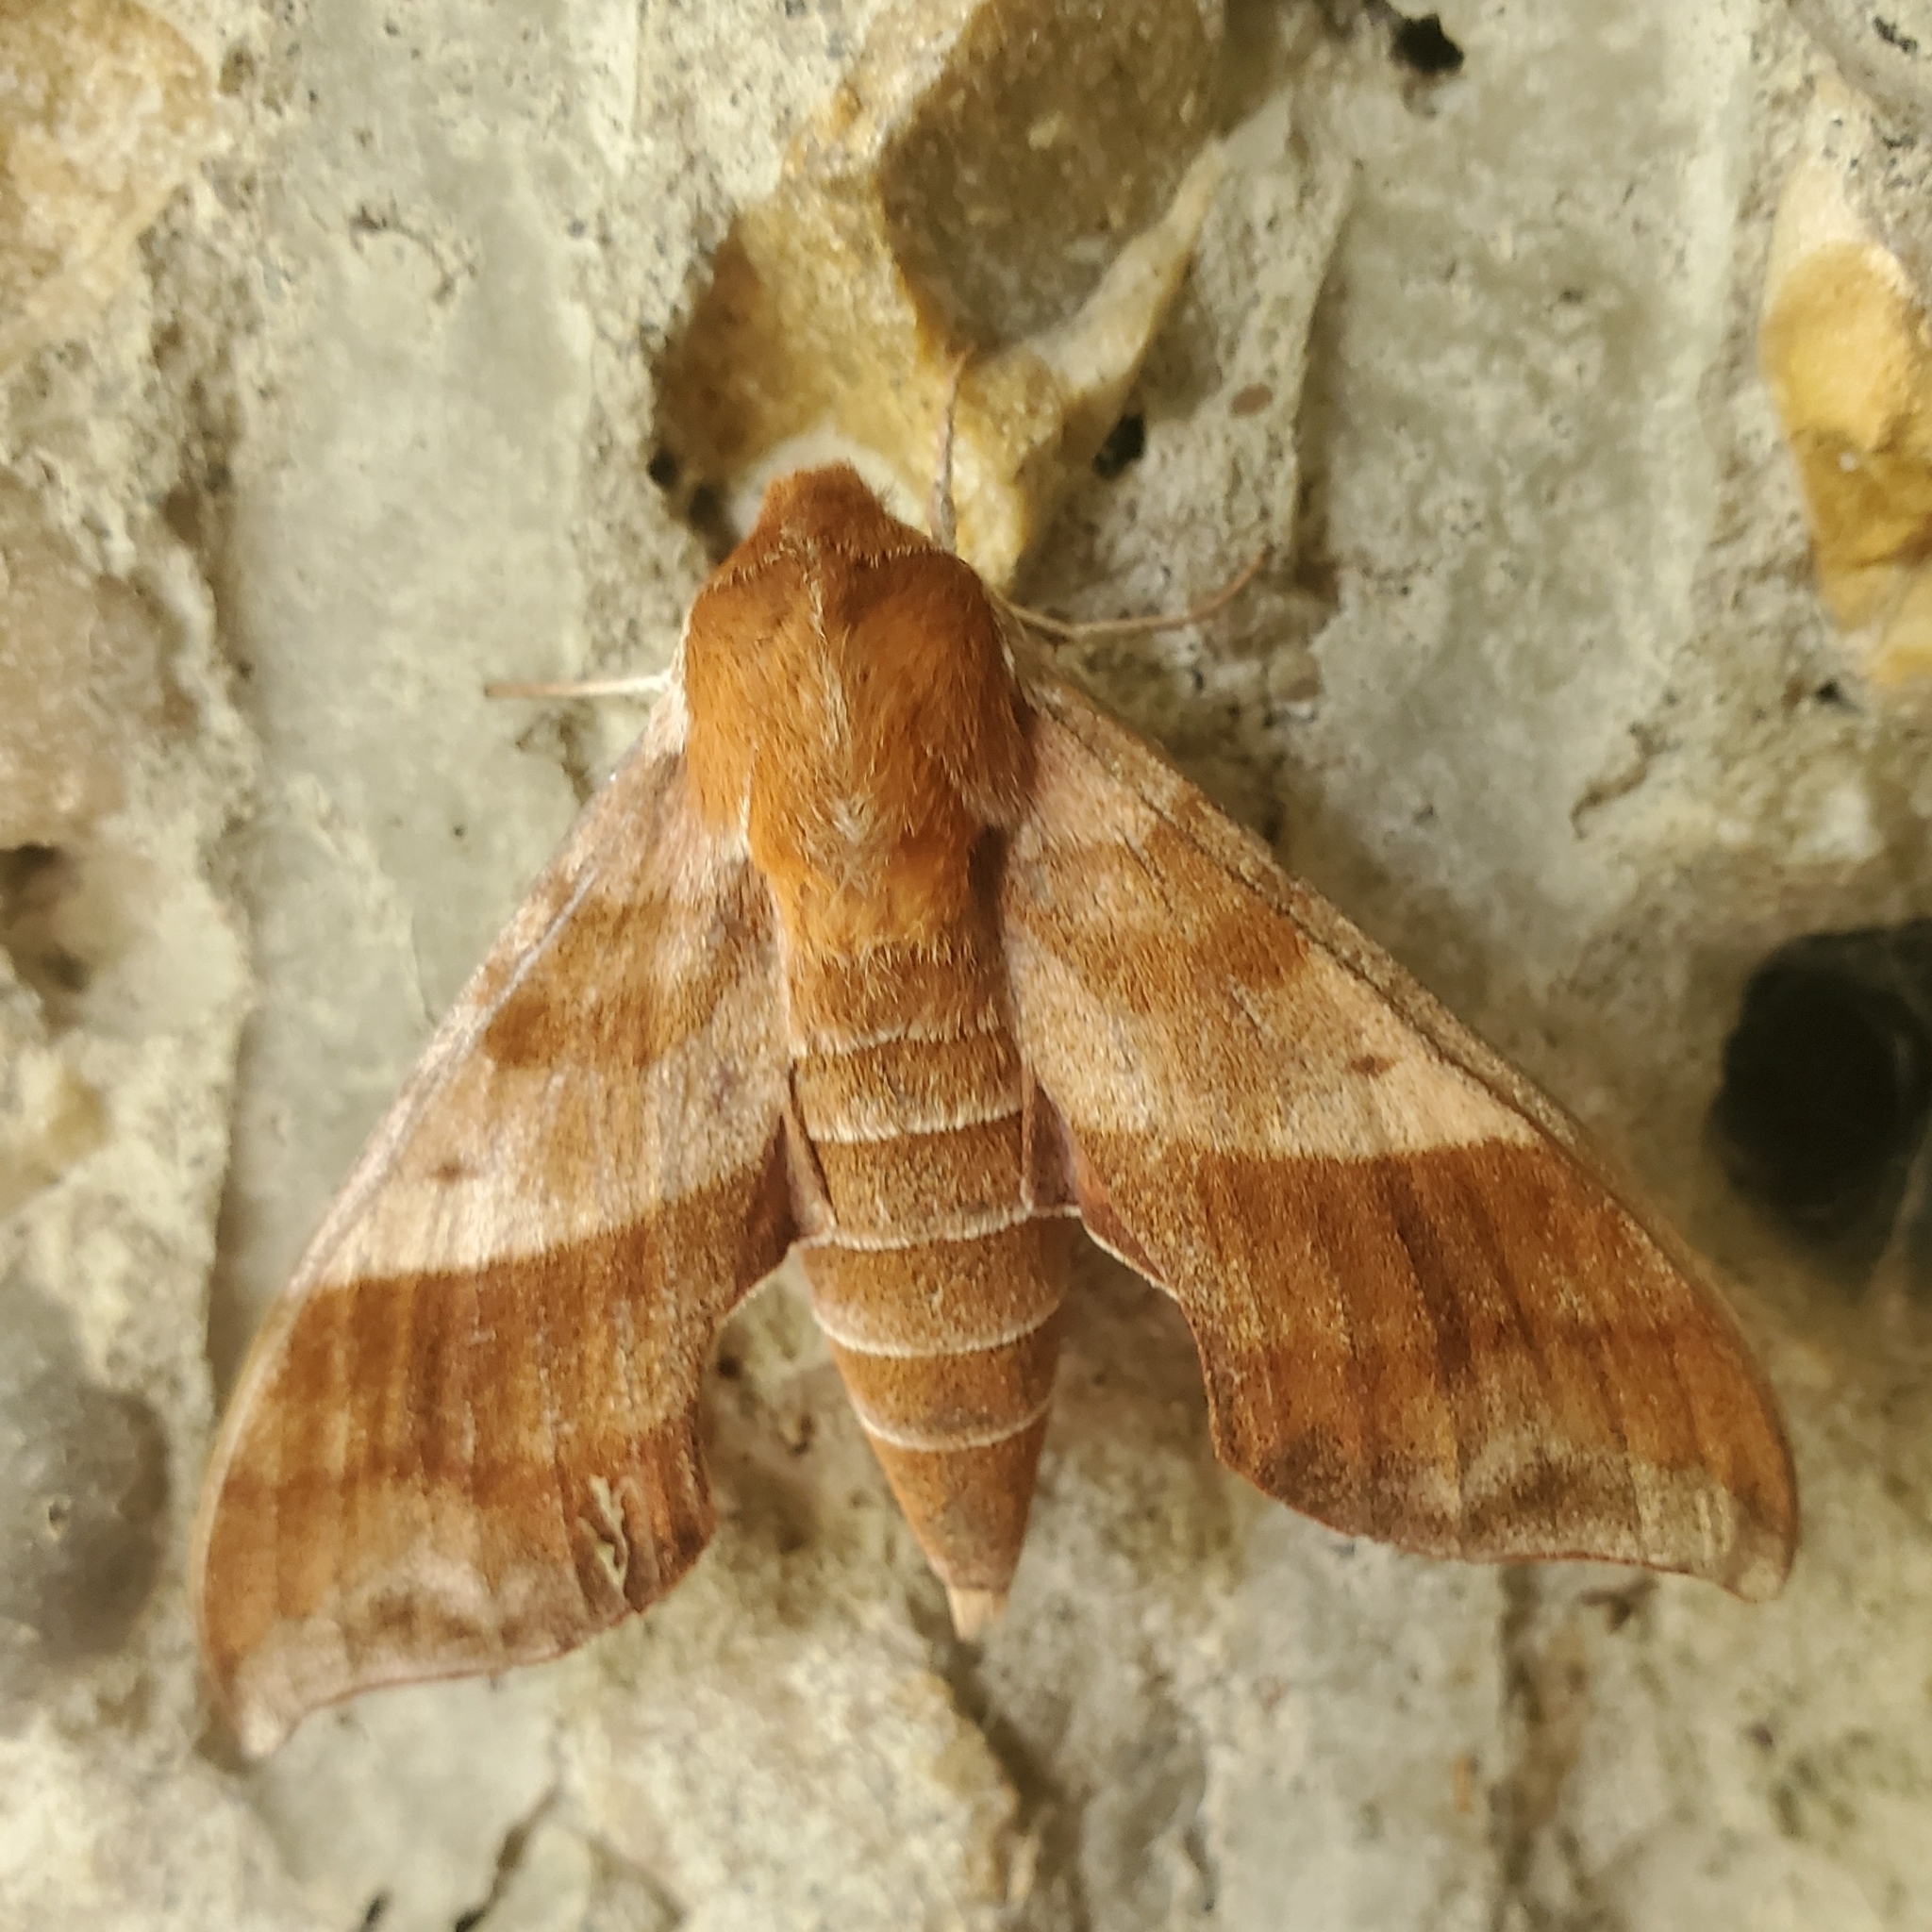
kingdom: Animalia
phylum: Arthropoda
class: Insecta
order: Lepidoptera
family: Sphingidae
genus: Darapsa
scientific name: Darapsa choerilus
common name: Azalea sphinx
